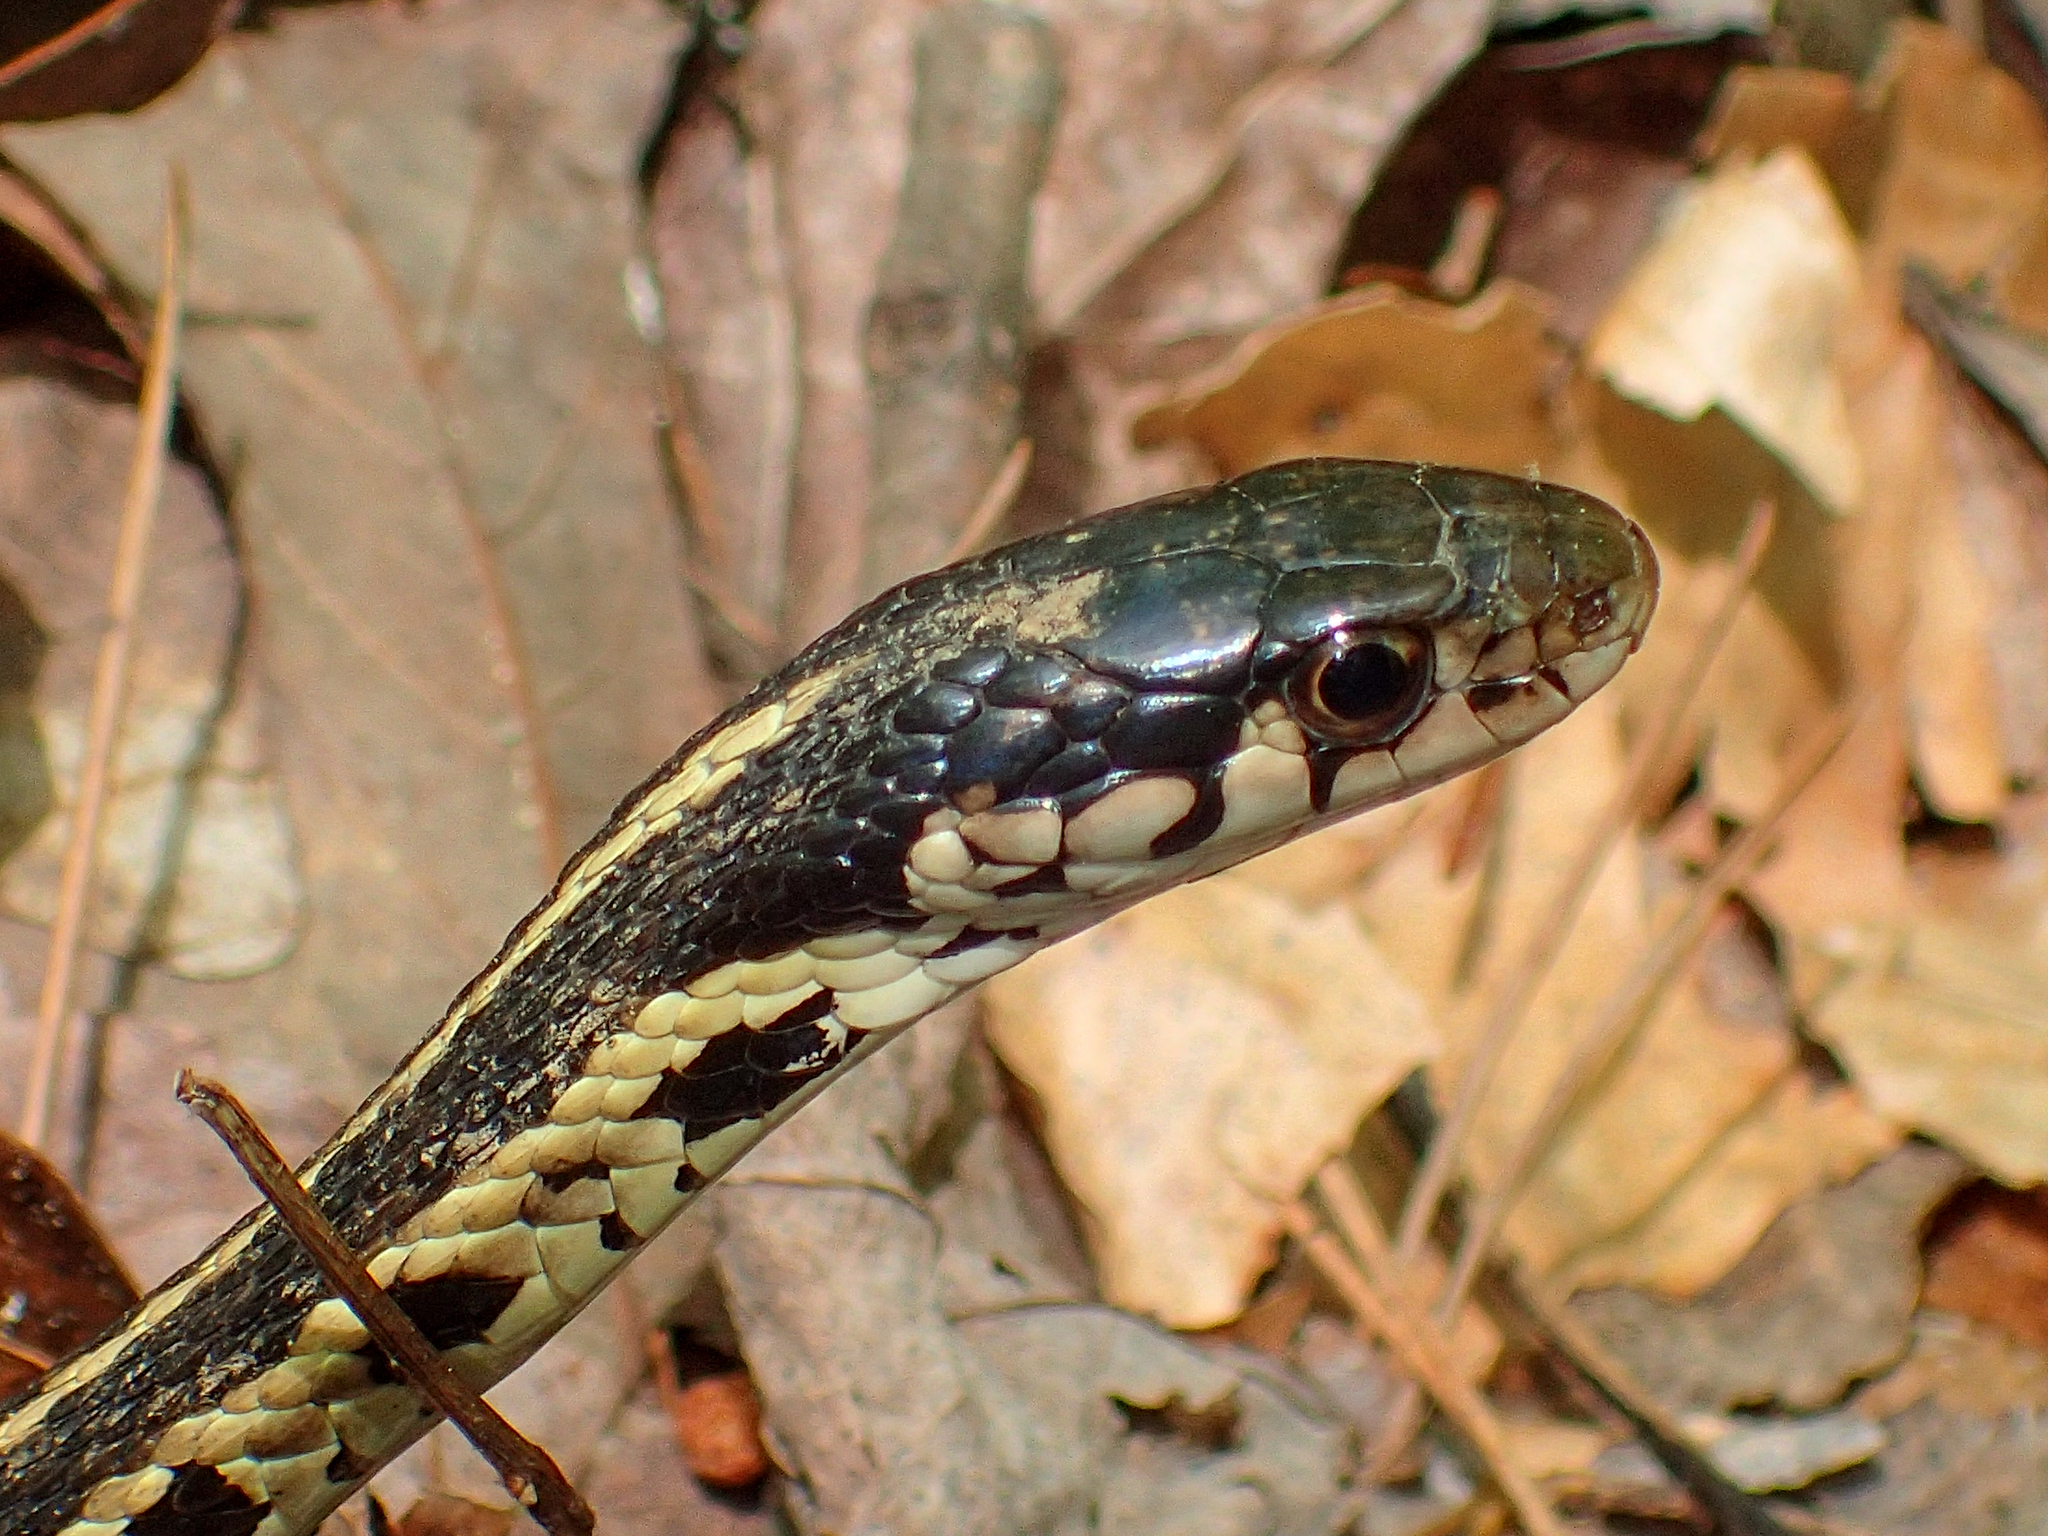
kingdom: Animalia
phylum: Chordata
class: Squamata
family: Colubridae
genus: Thamnophis
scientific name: Thamnophis sirtalis
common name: Common garter snake
